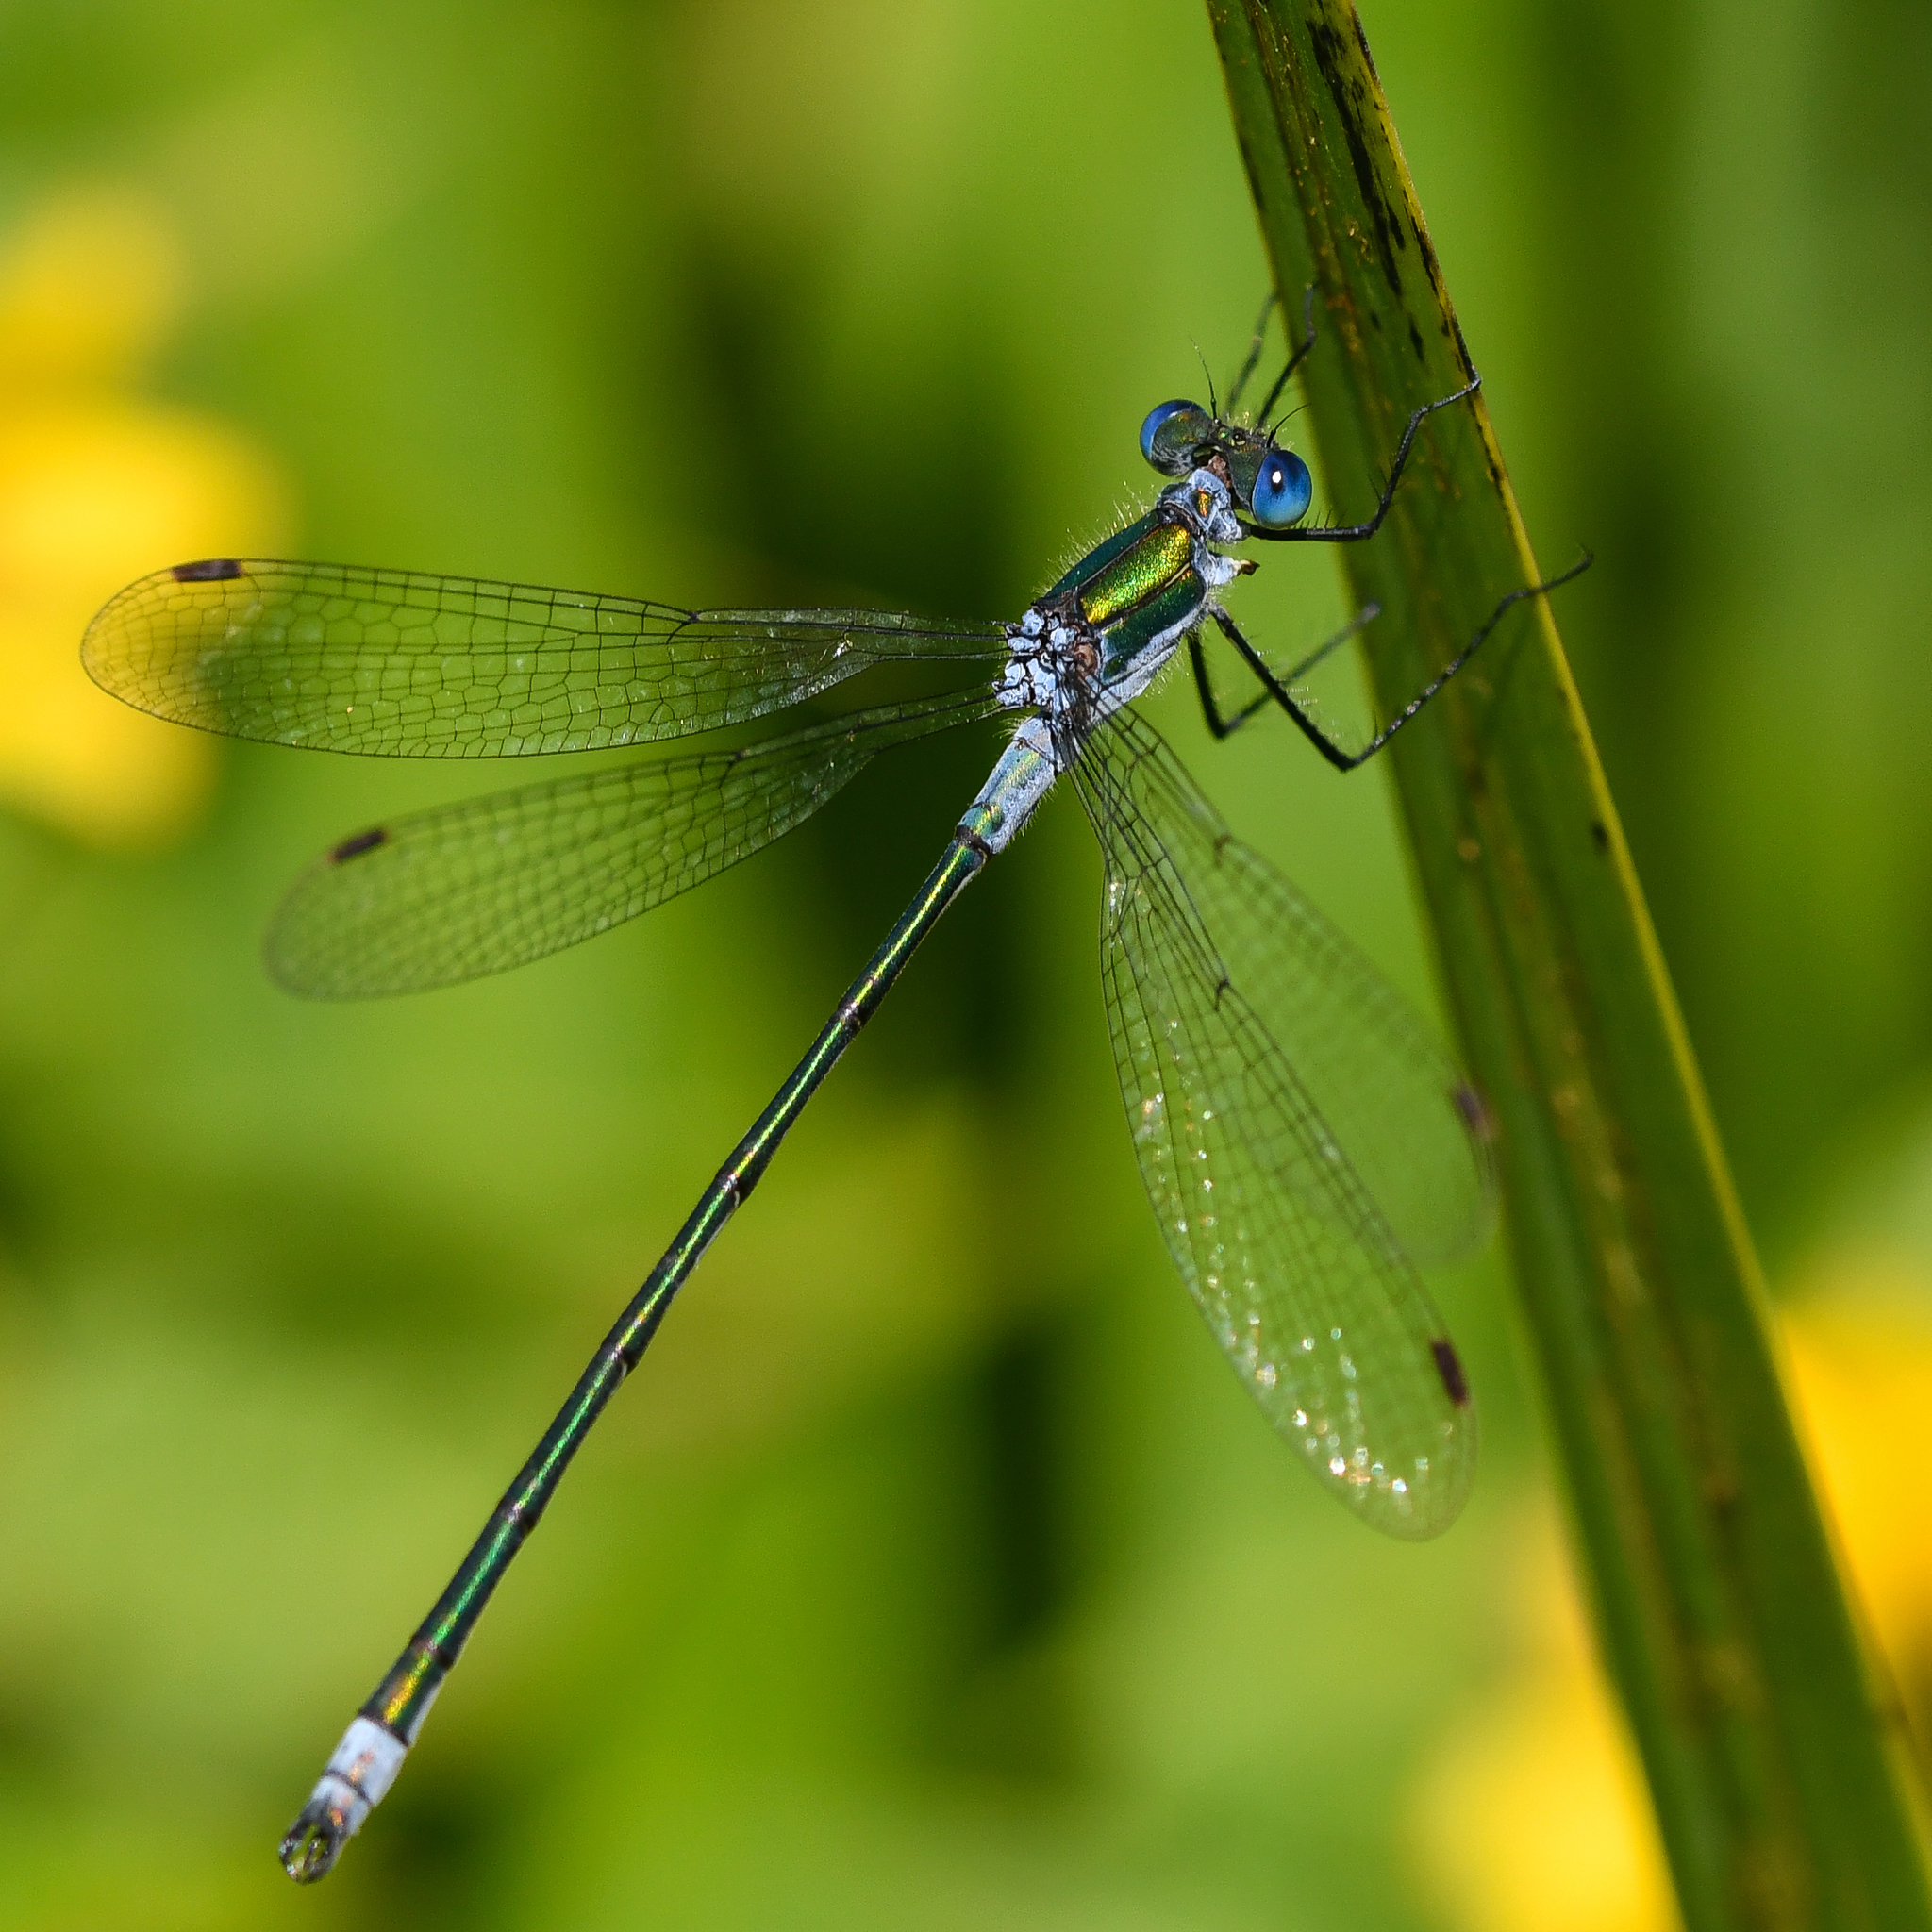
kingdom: Animalia
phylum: Arthropoda
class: Insecta
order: Odonata
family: Lestidae
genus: Lestes
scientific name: Lestes sponsa
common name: Common spreadwing
